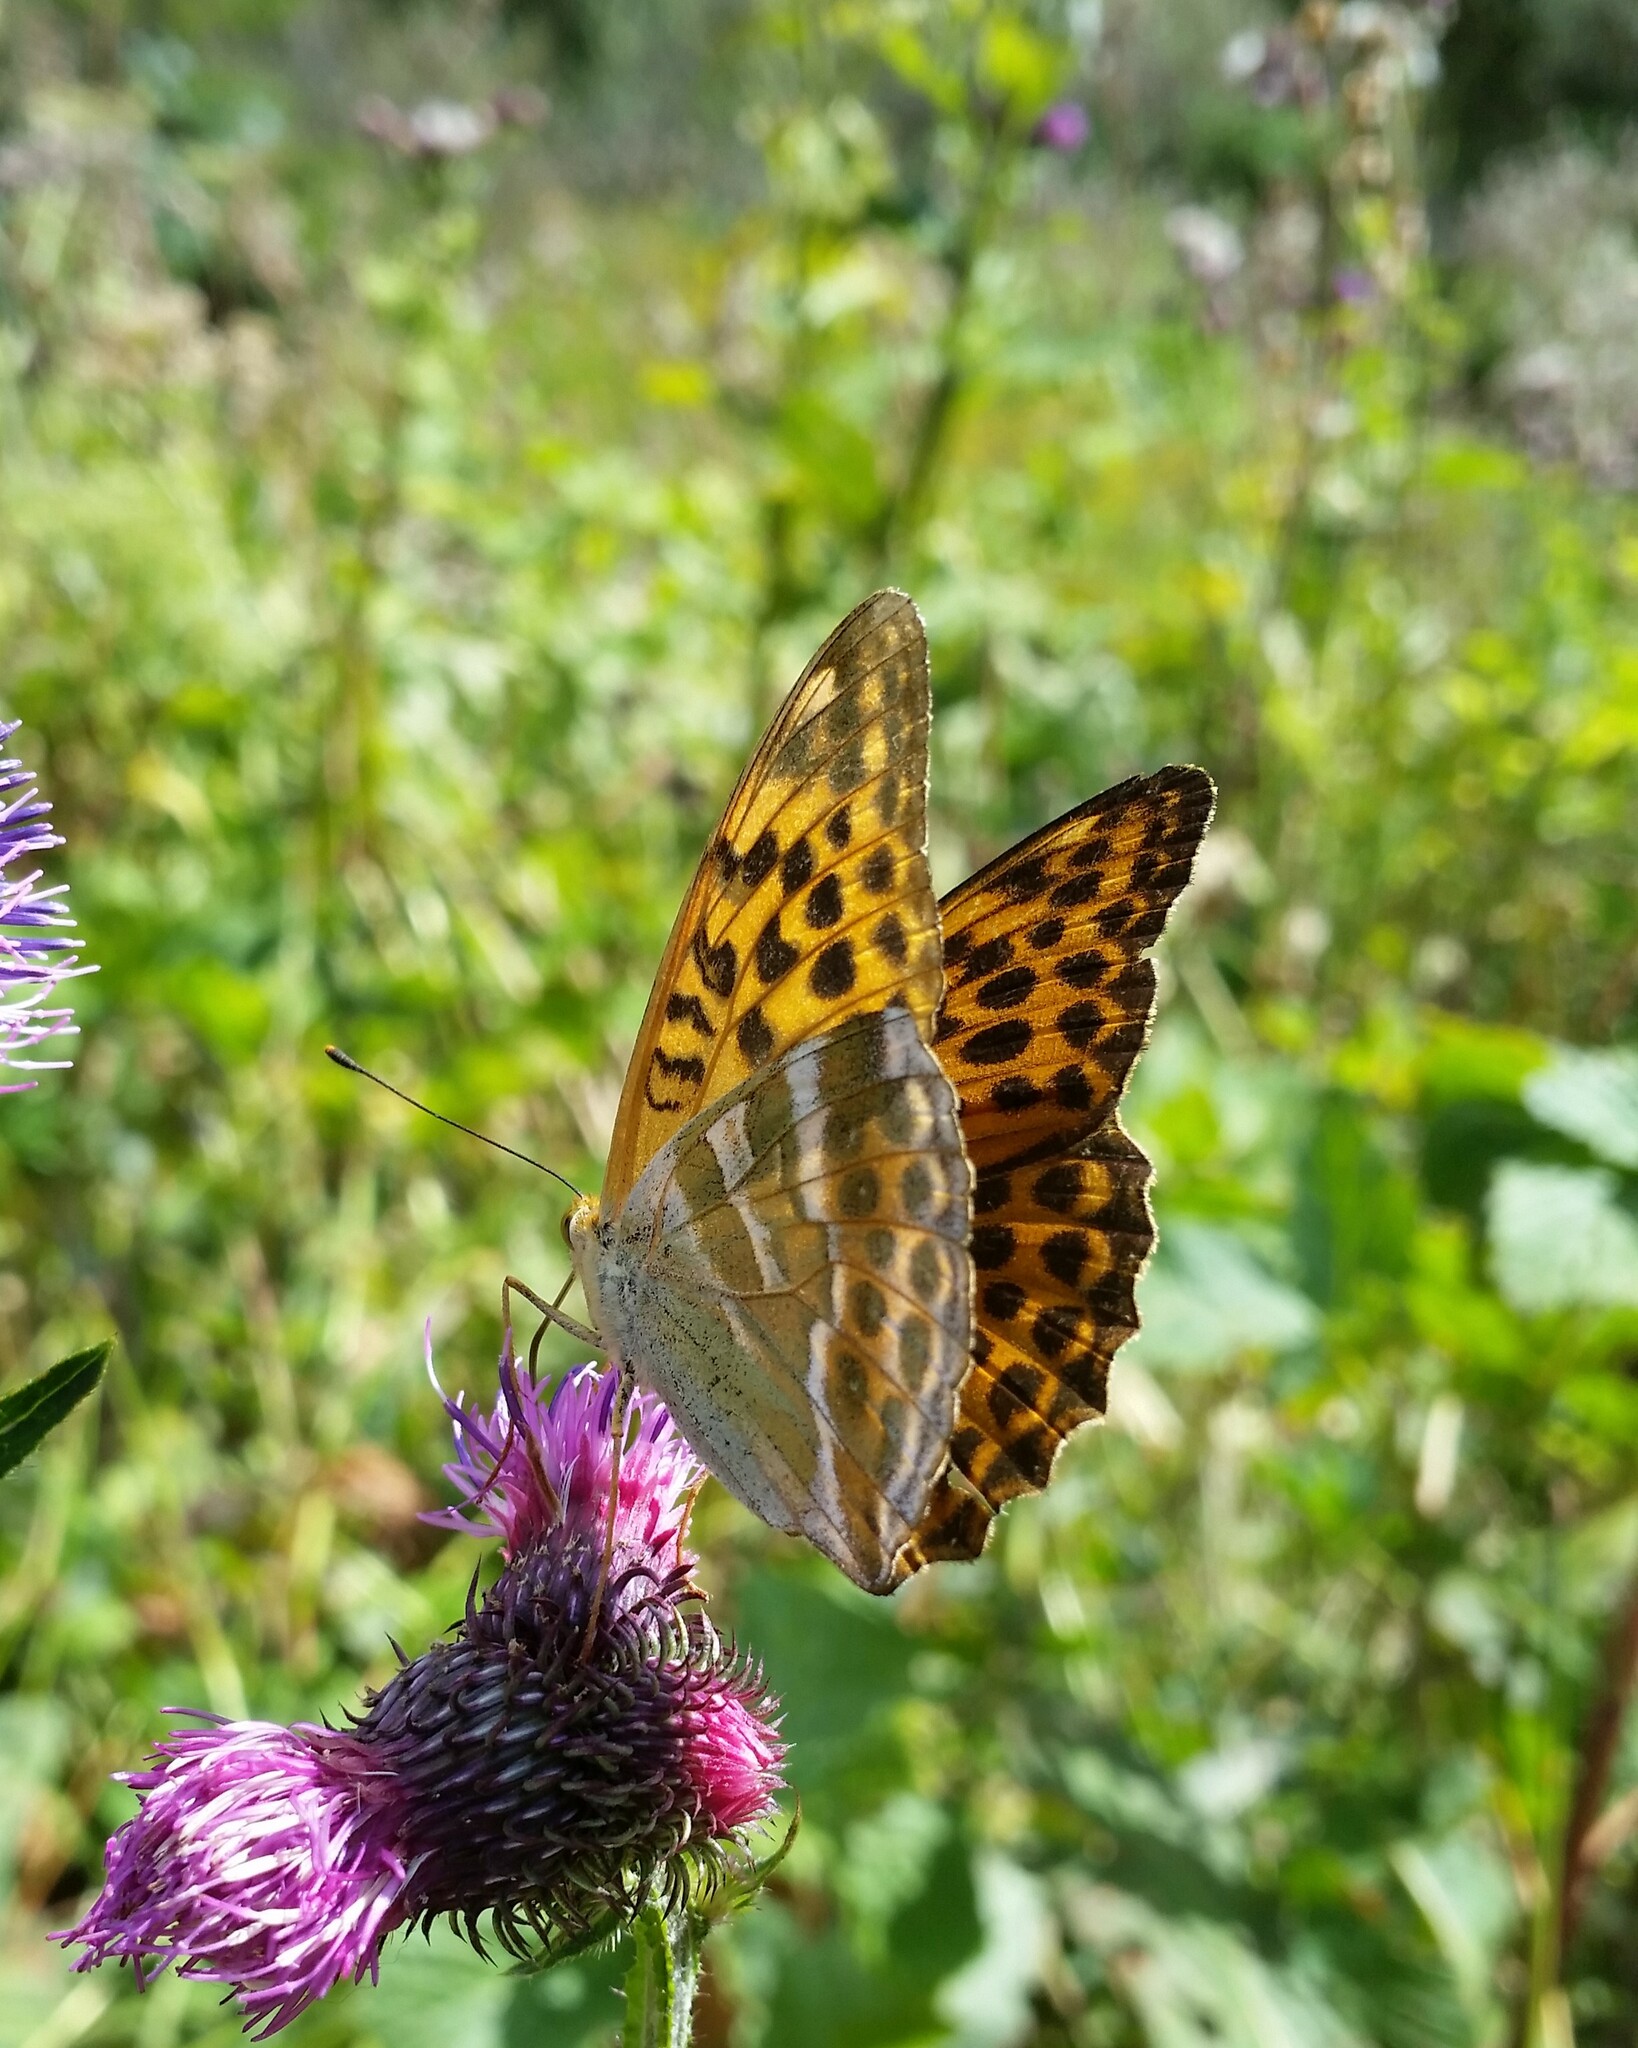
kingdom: Animalia
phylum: Arthropoda
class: Insecta
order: Lepidoptera
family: Nymphalidae
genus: Argynnis
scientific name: Argynnis paphia
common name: Silver-washed fritillary
